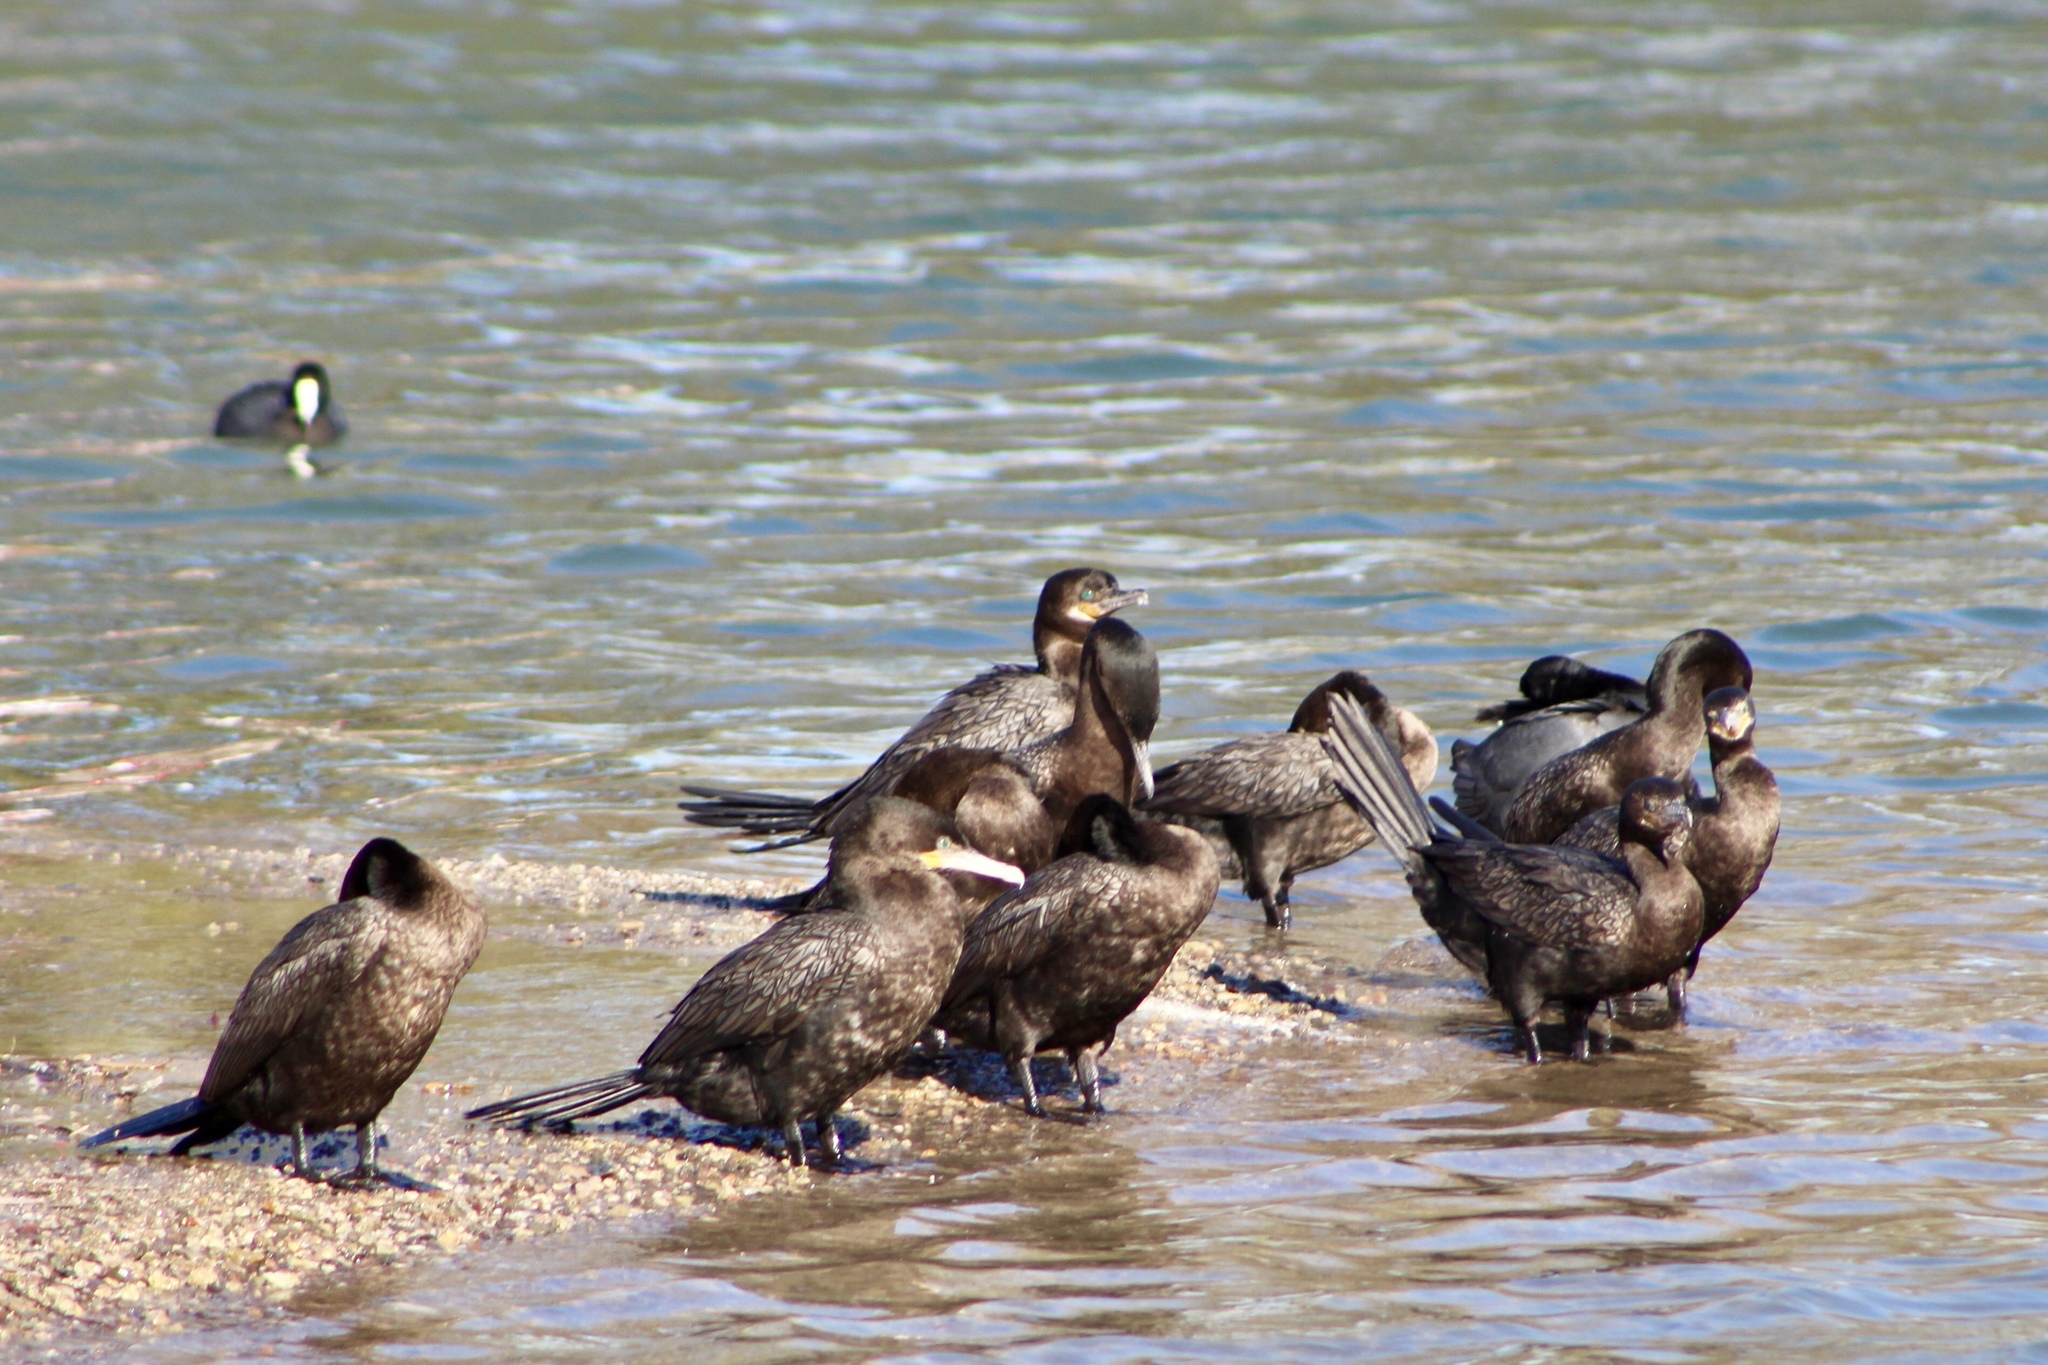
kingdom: Animalia
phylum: Chordata
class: Aves
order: Suliformes
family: Phalacrocoracidae
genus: Phalacrocorax
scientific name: Phalacrocorax brasilianus
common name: Neotropic cormorant
